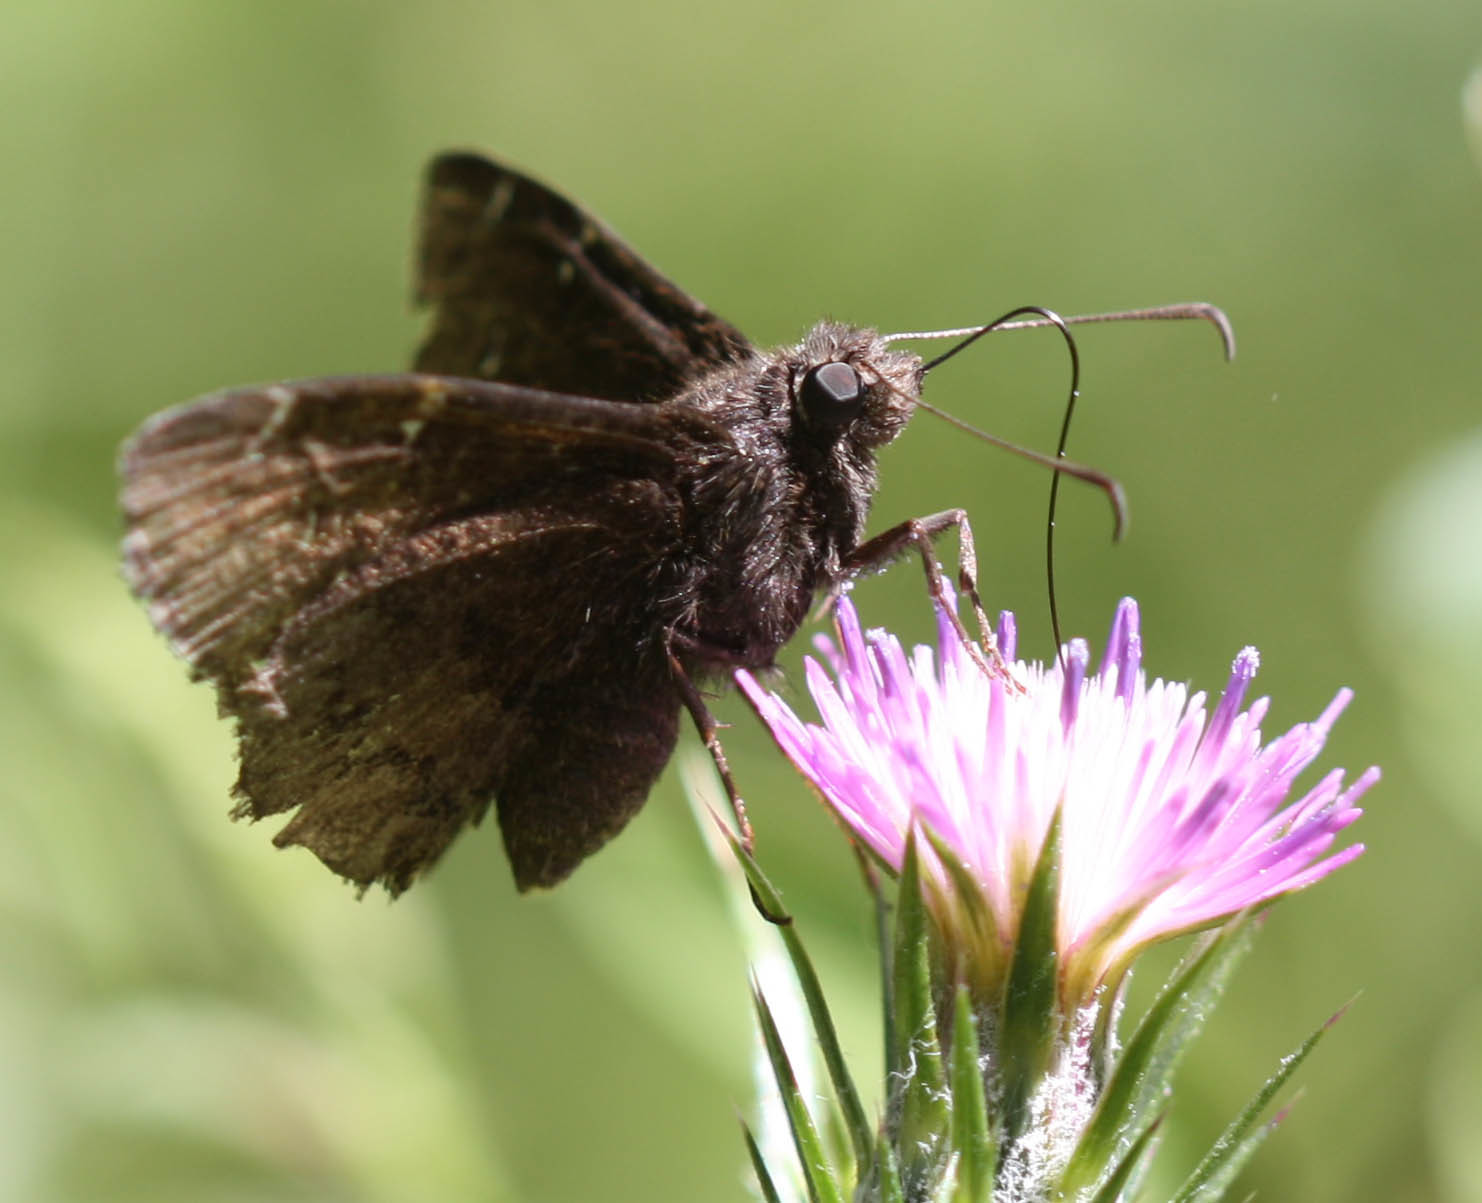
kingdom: Animalia
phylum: Arthropoda
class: Insecta
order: Lepidoptera
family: Hesperiidae
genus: Thorybes
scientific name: Thorybes pylades
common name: Northern cloudywing
